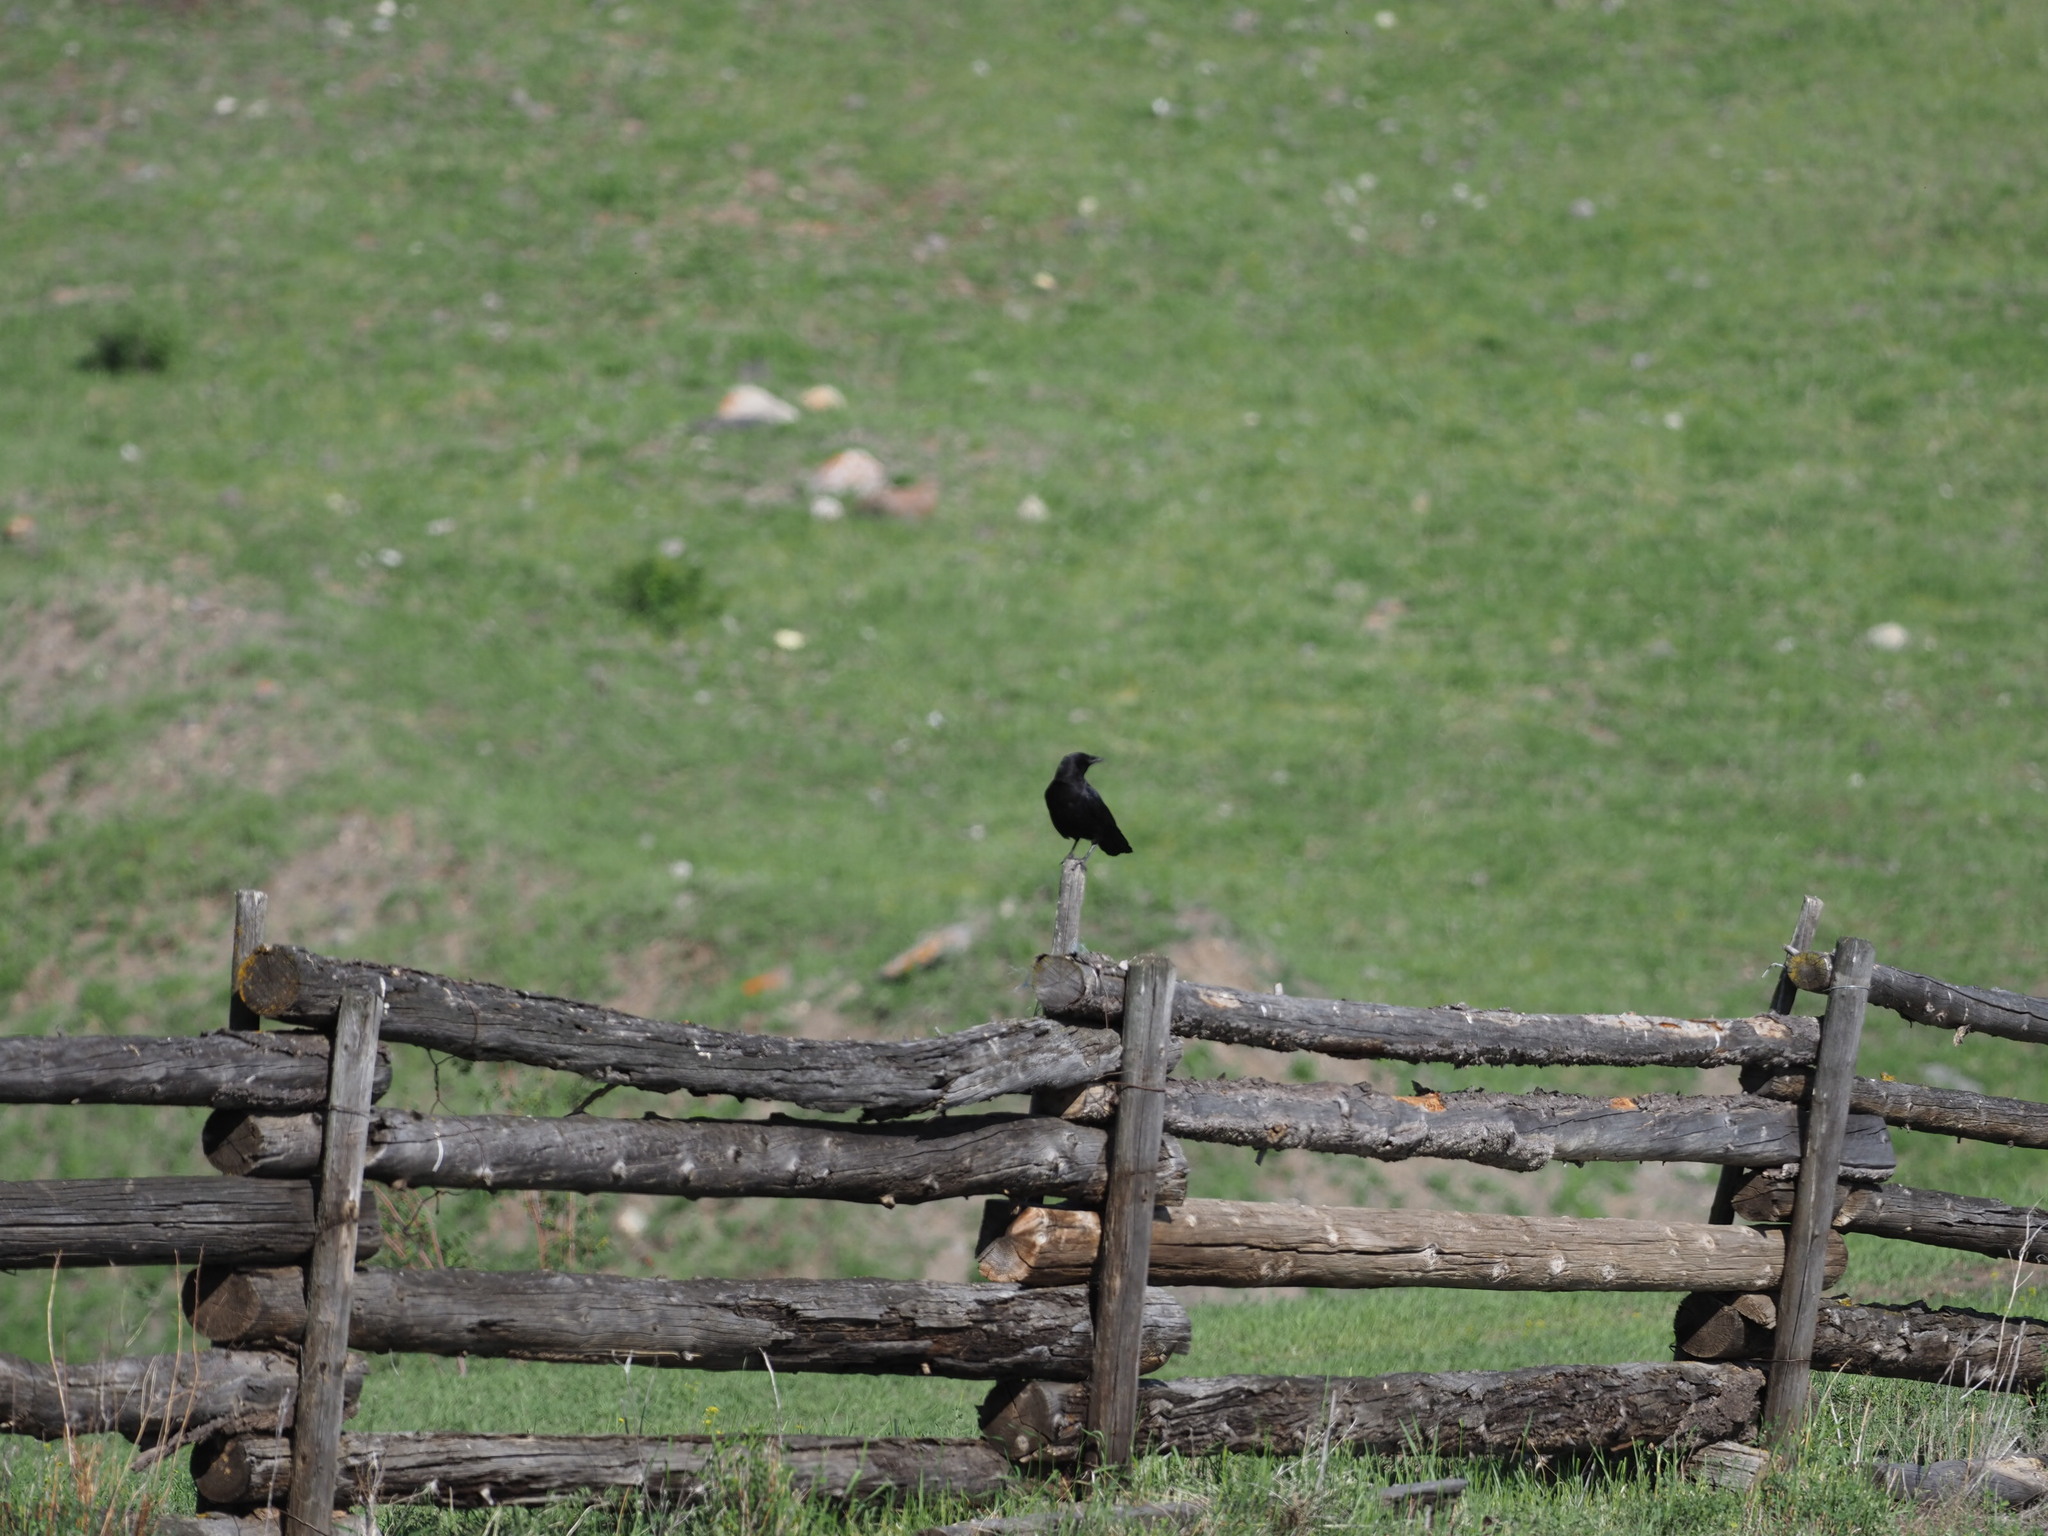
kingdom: Animalia
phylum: Chordata
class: Aves
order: Passeriformes
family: Corvidae
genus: Corvus
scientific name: Corvus brachyrhynchos
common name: American crow
